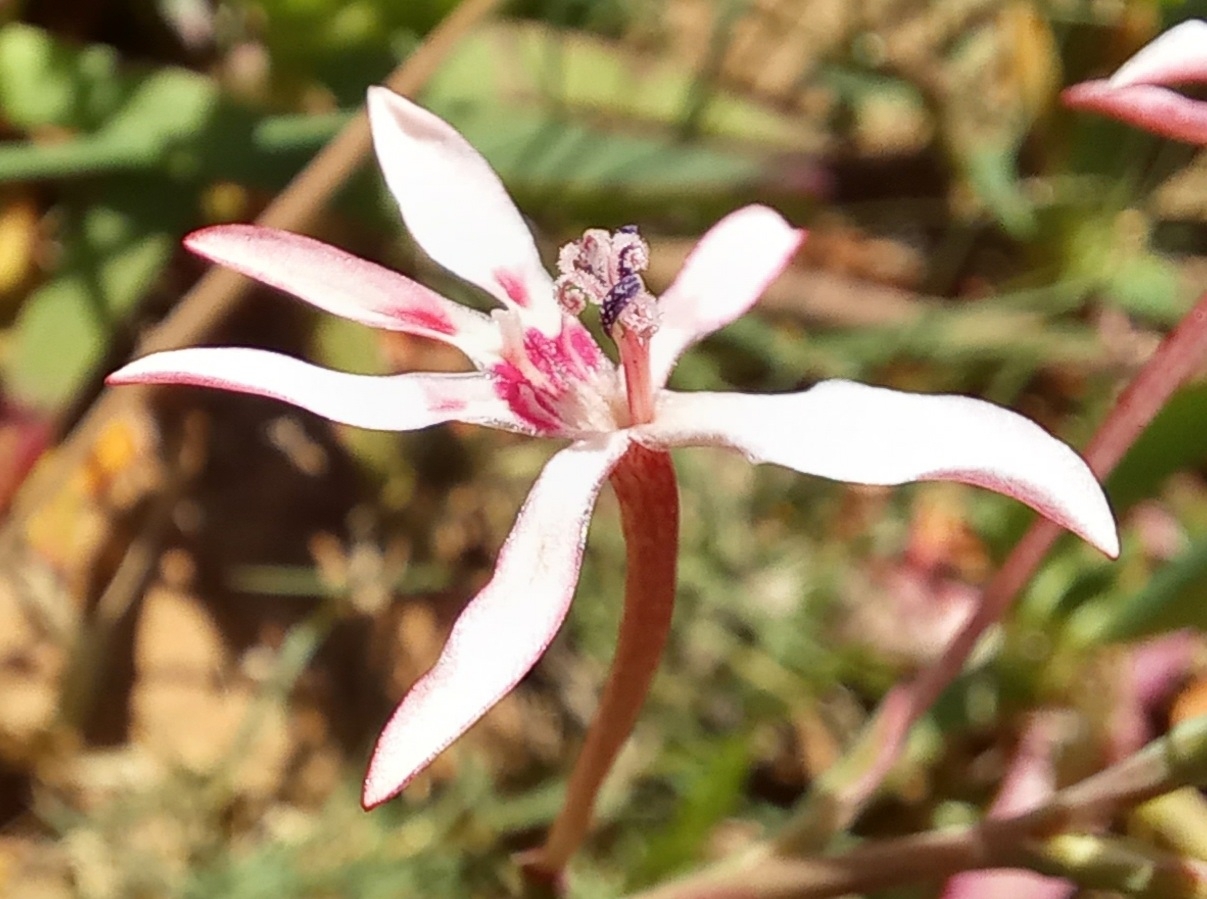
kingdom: Plantae
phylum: Tracheophyta
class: Liliopsida
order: Asparagales
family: Iridaceae
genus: Lapeirousia
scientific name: Lapeirousia anceps
